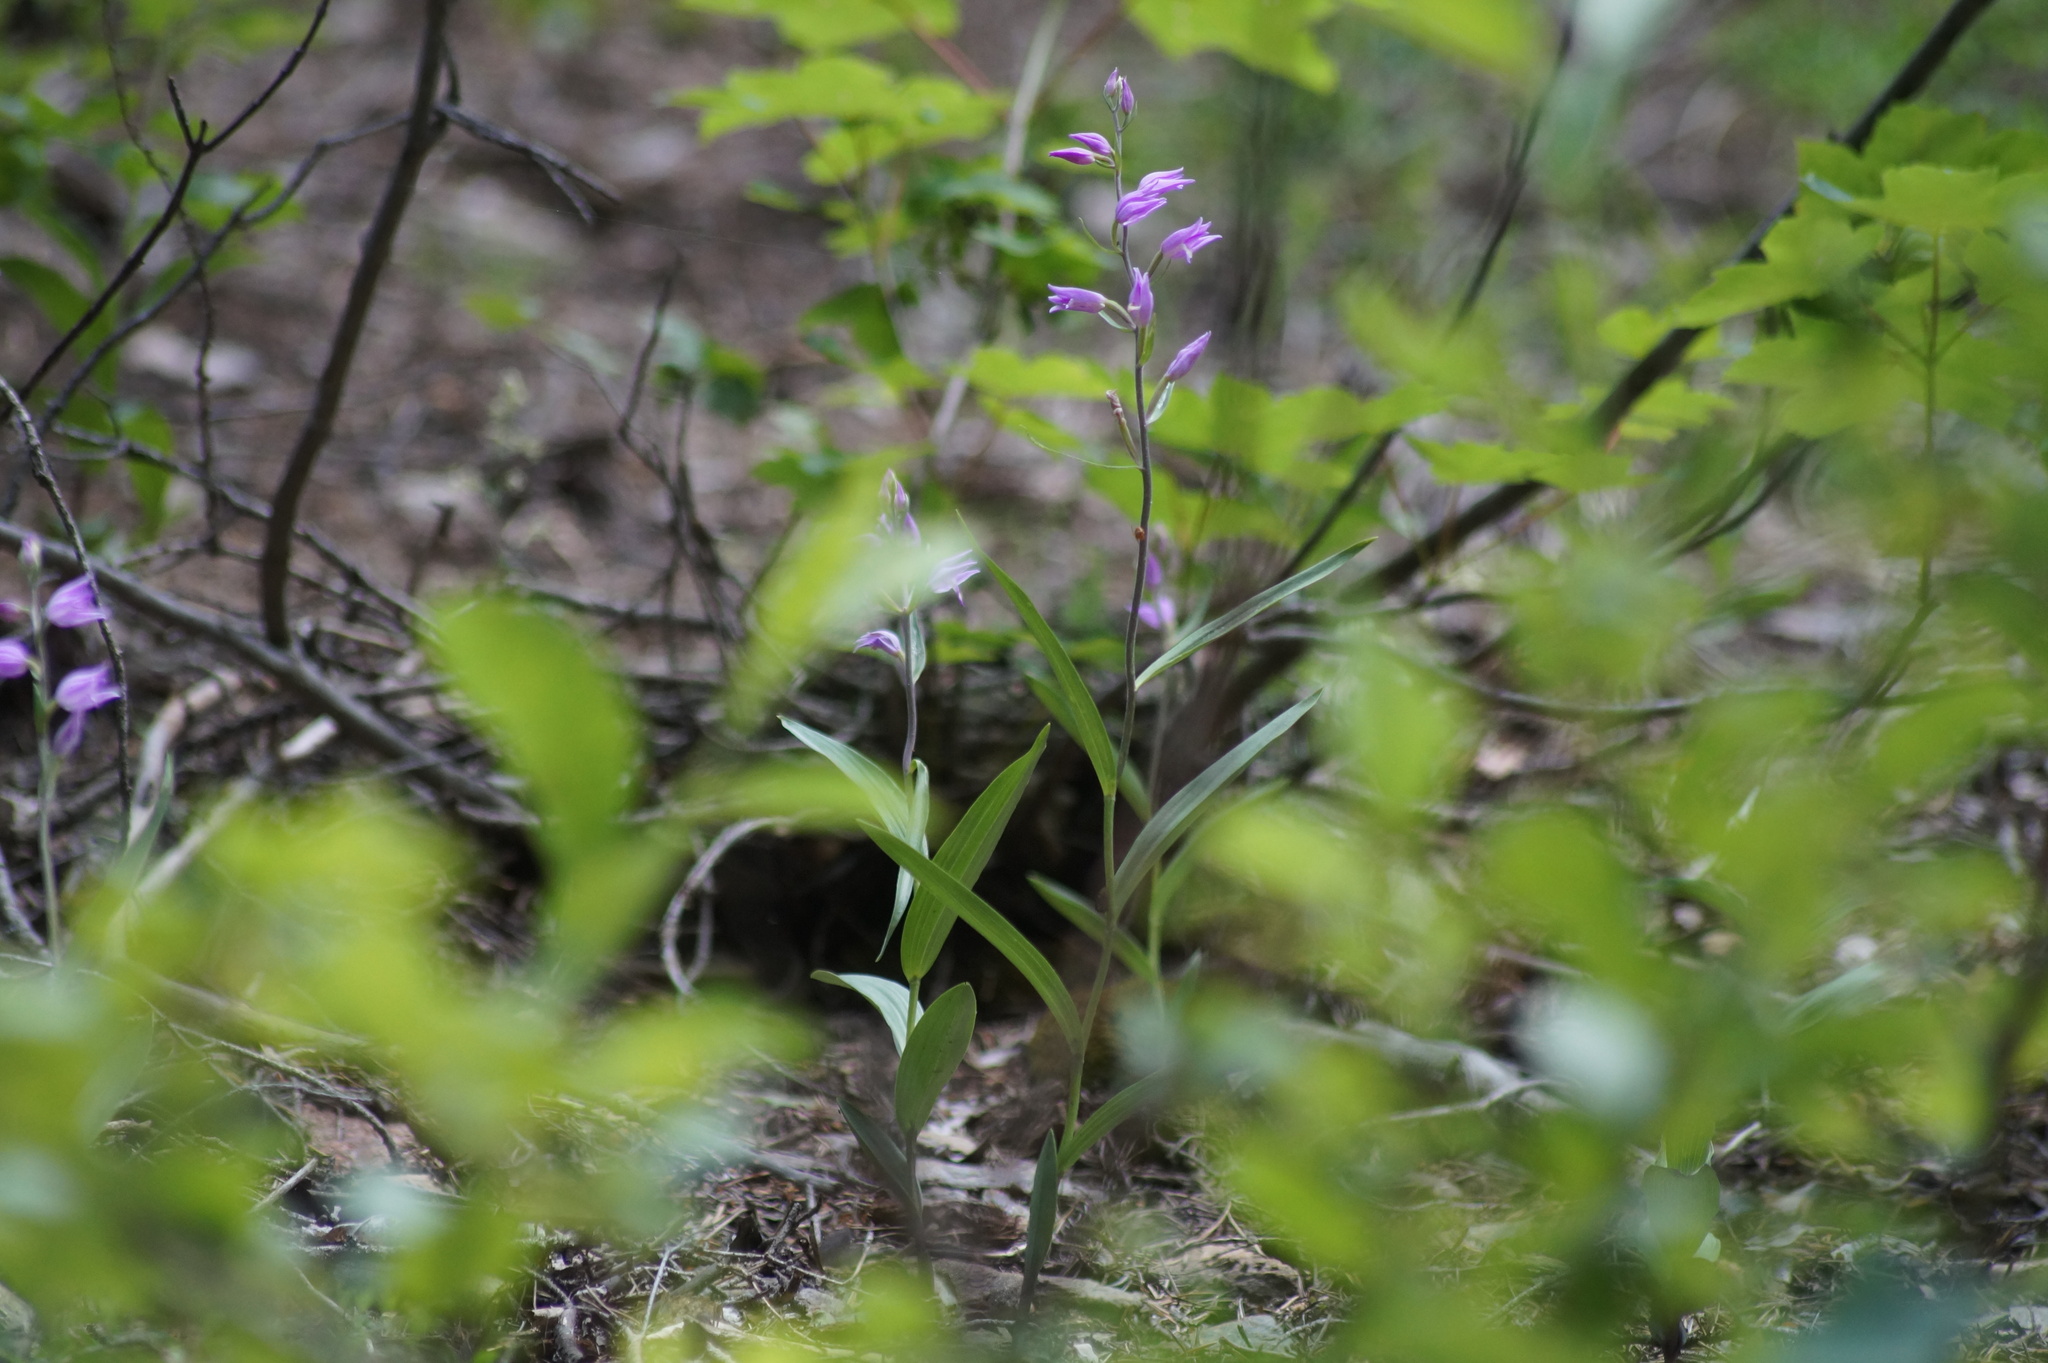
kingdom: Plantae
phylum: Tracheophyta
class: Liliopsida
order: Asparagales
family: Orchidaceae
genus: Cephalanthera
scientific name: Cephalanthera rubra
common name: Red helleborine
